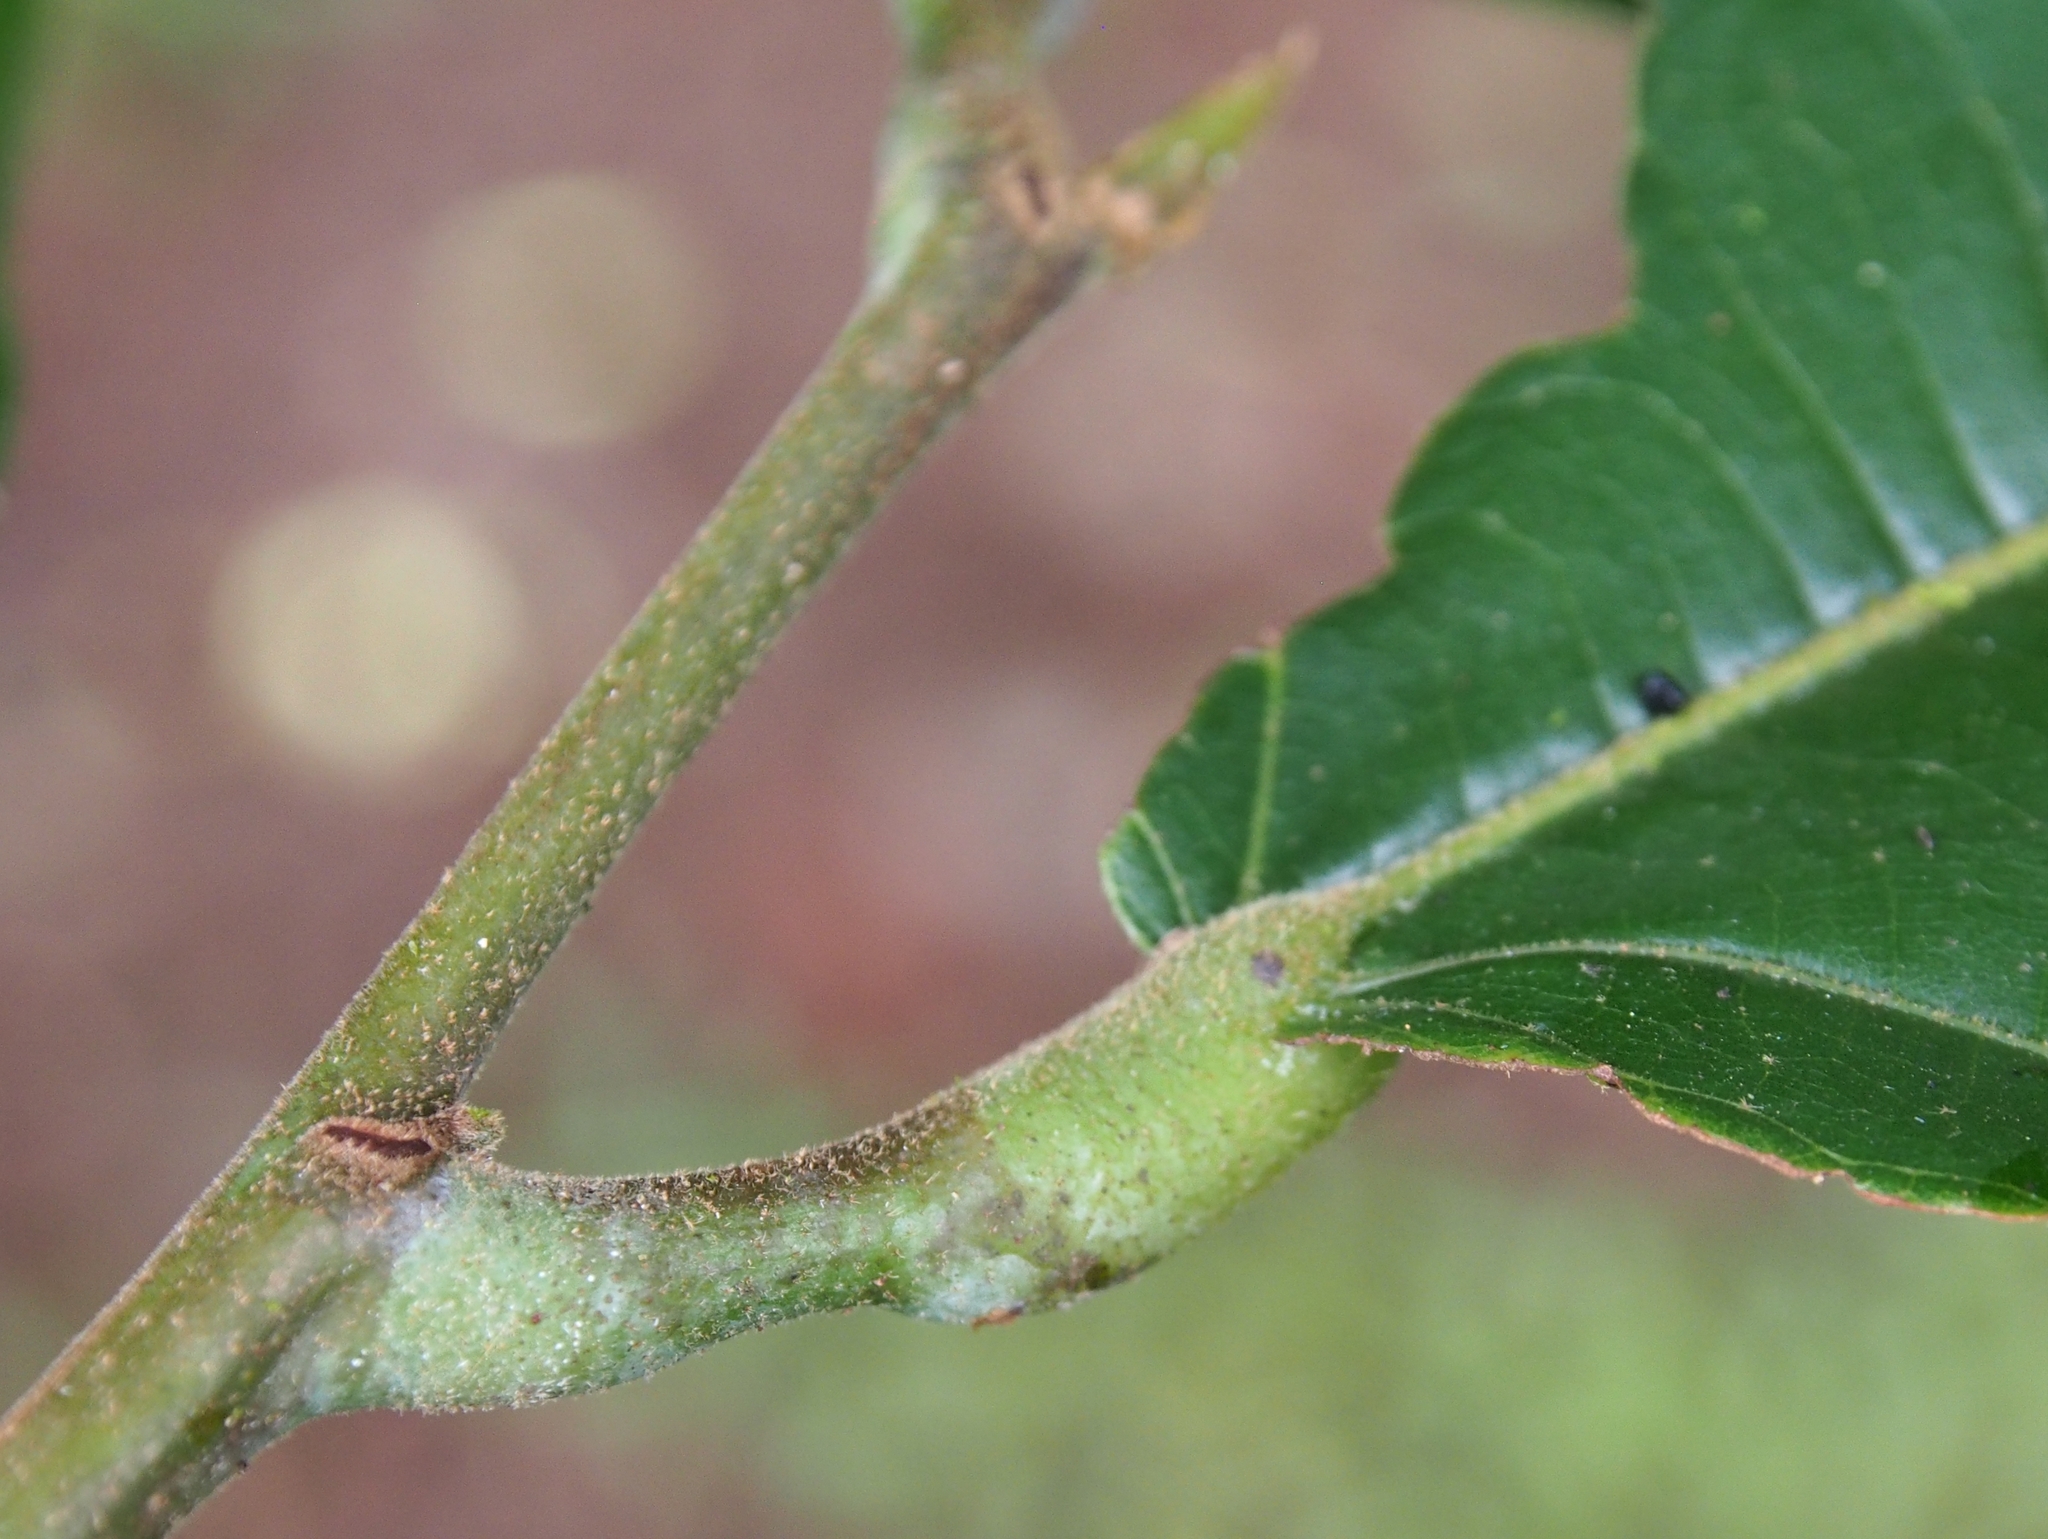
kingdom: Plantae
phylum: Tracheophyta
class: Magnoliopsida
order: Malvales
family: Malvaceae
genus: Theobroma
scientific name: Theobroma cacao
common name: Cocoa
